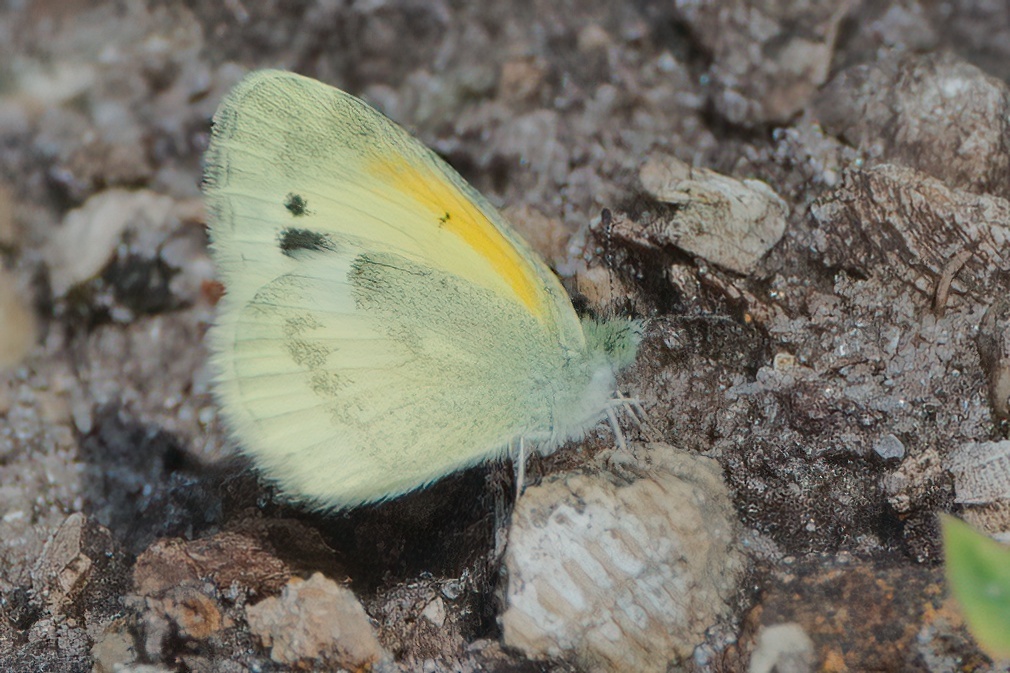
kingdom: Animalia
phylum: Arthropoda
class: Insecta
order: Lepidoptera
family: Pieridae
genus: Nathalis
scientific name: Nathalis iole
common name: Dainty sulphur
